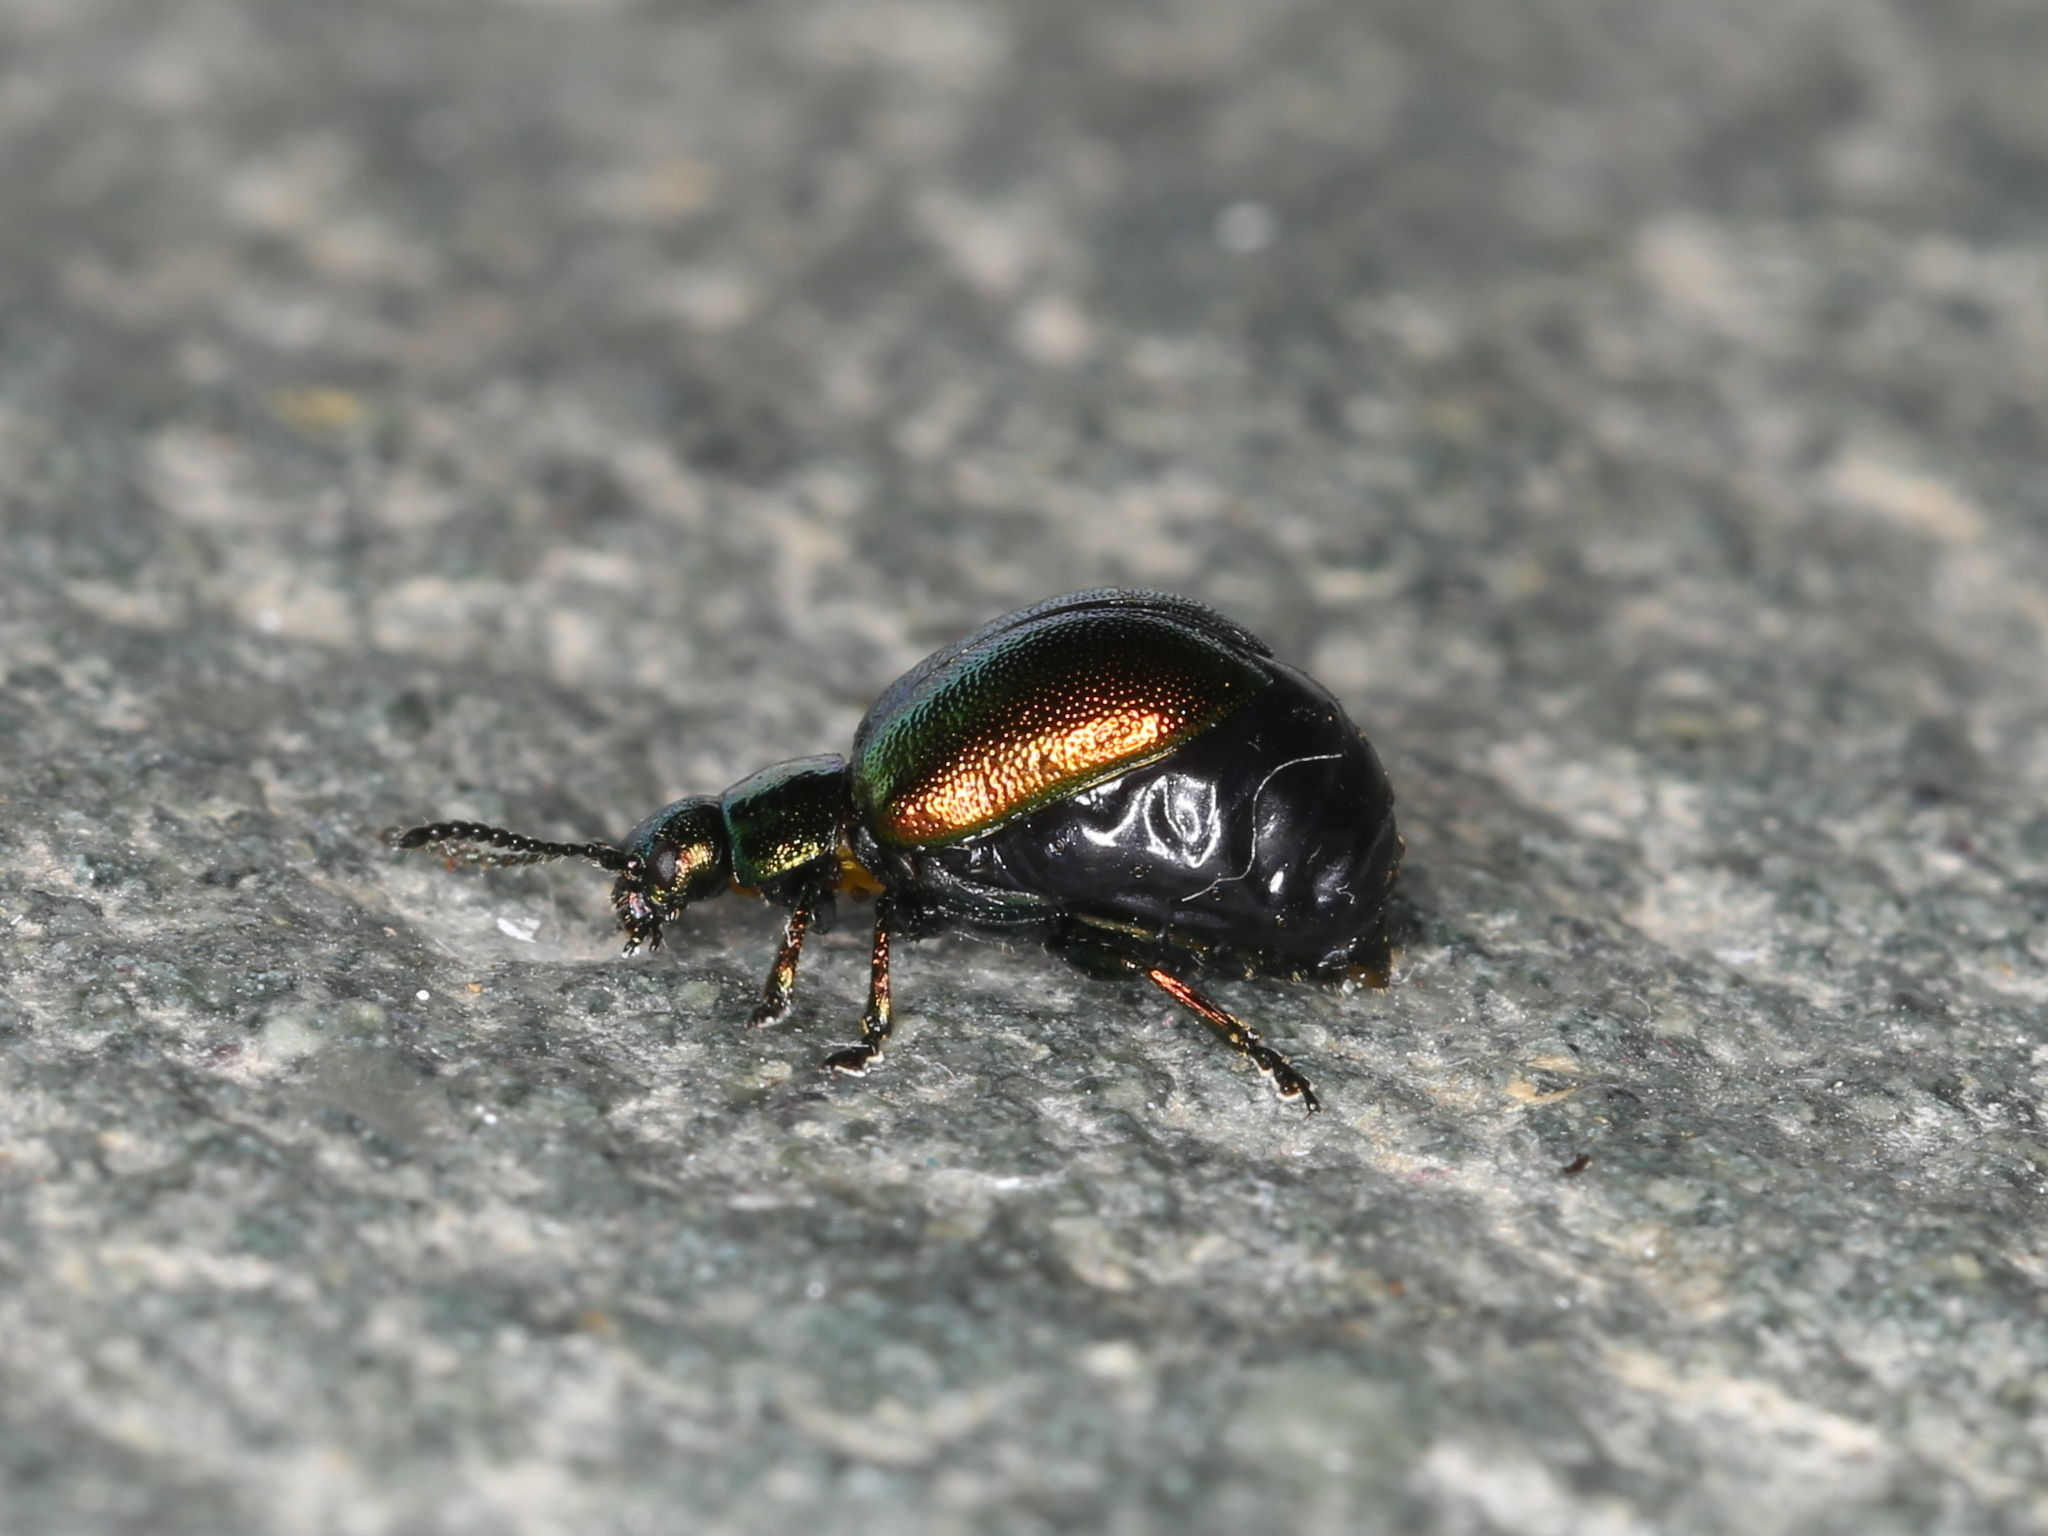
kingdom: Animalia
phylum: Arthropoda
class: Insecta
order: Coleoptera
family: Chrysomelidae
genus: Gastrophysa
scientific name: Gastrophysa viridula
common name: Green dock beetle
